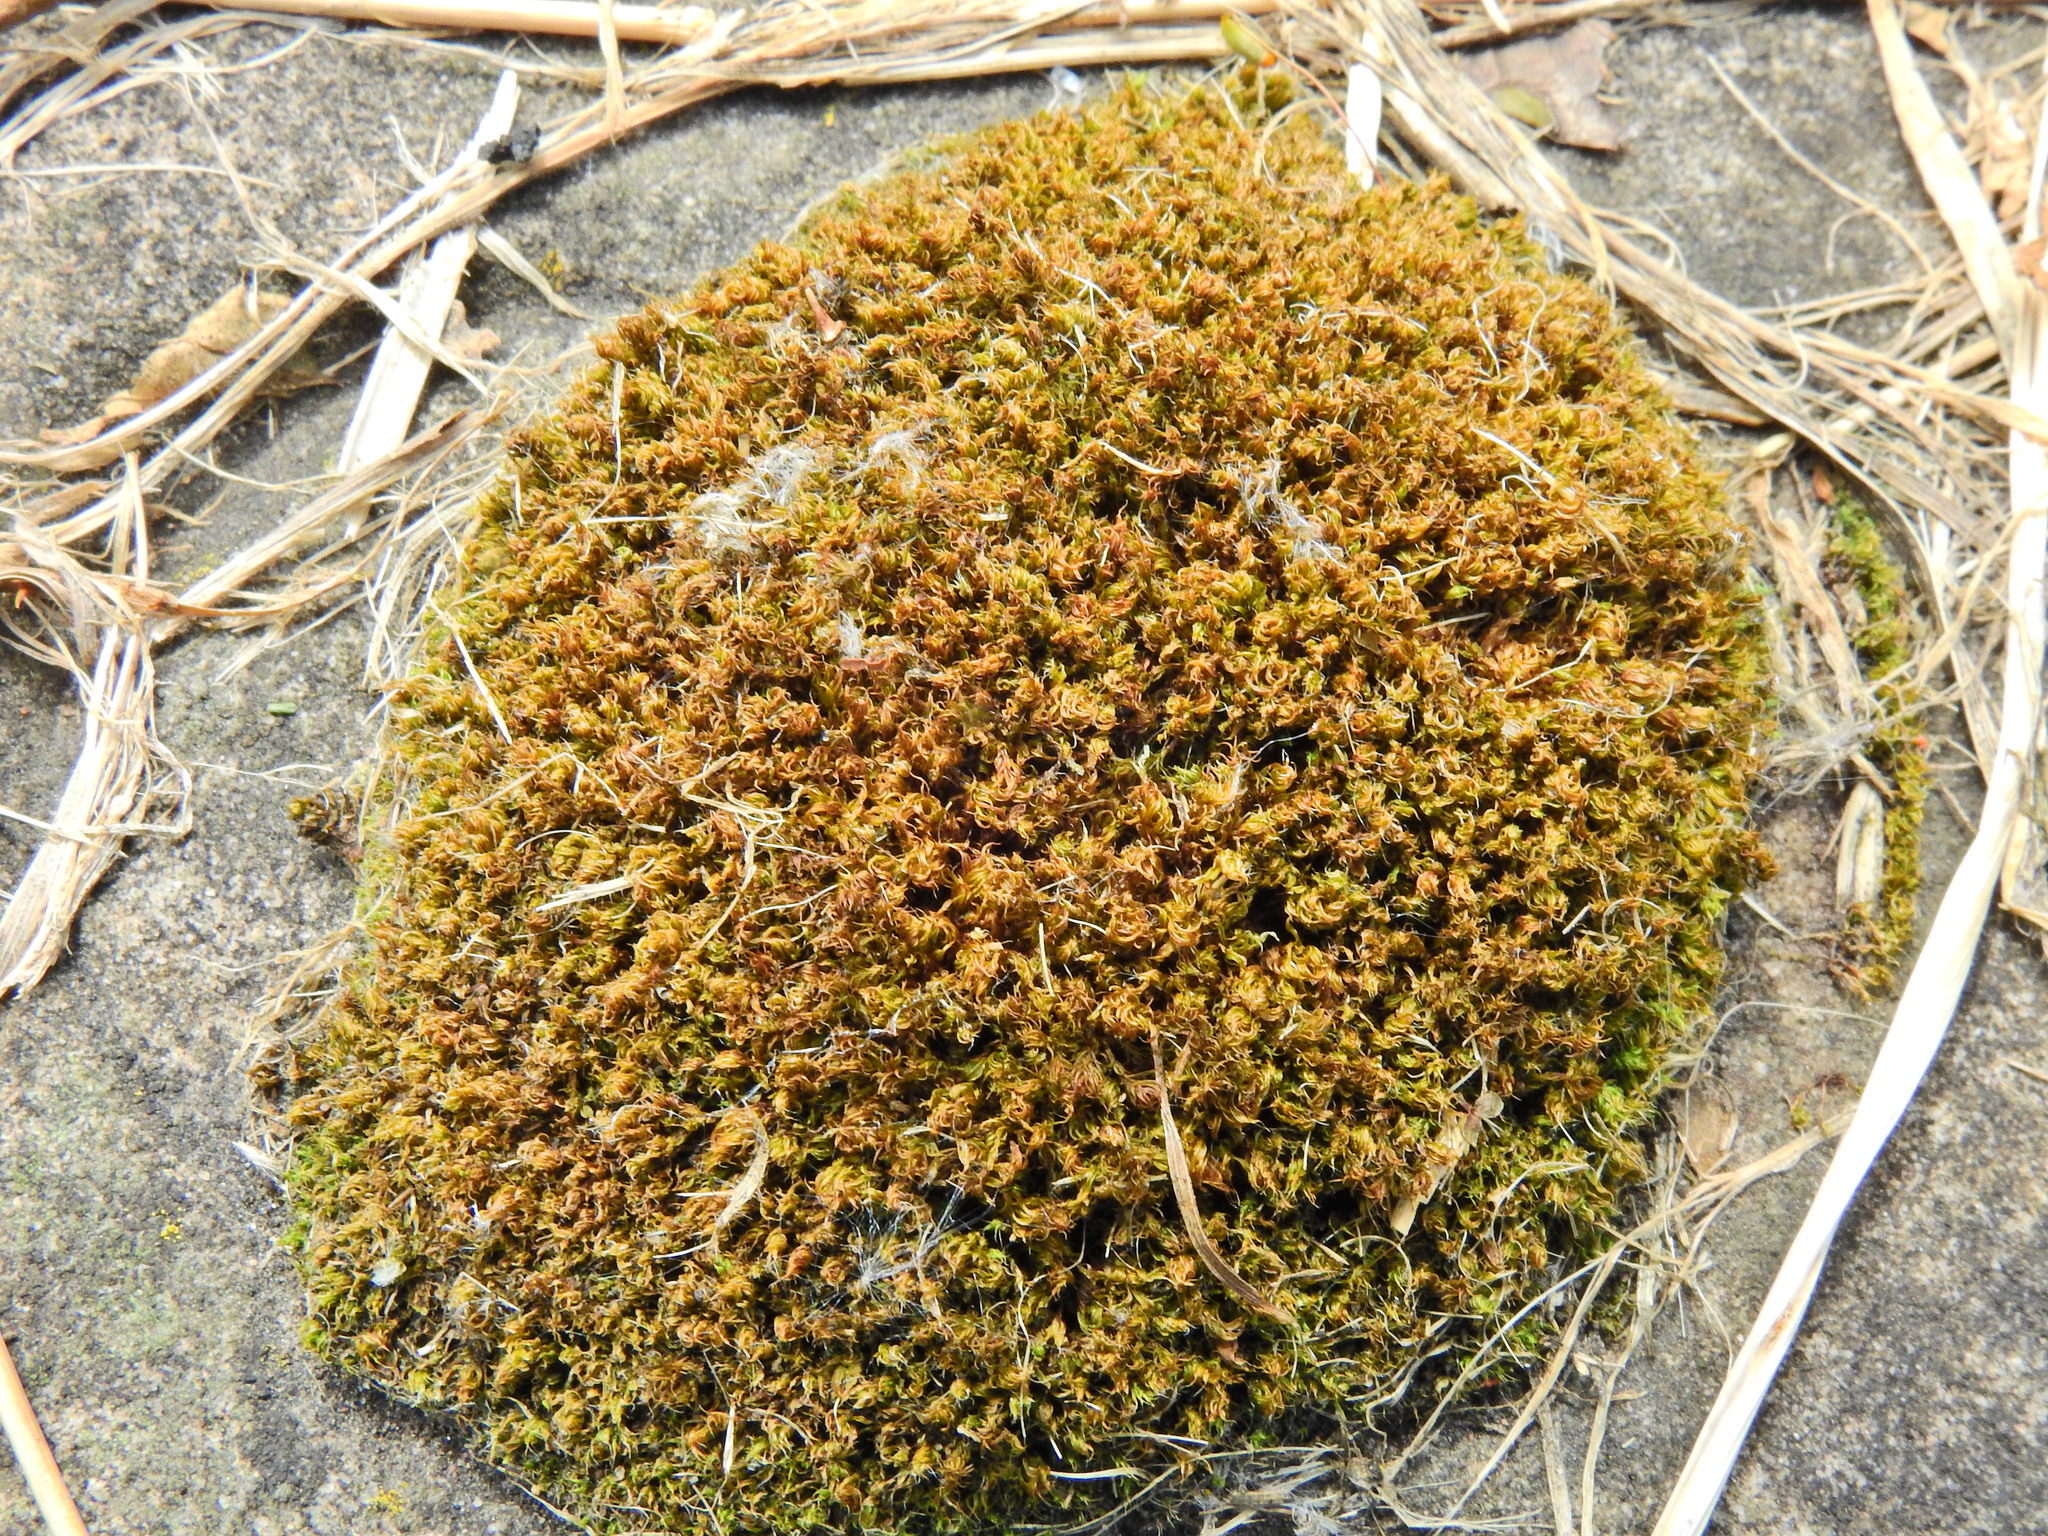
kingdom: Plantae
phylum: Bryophyta
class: Bryopsida
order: Bryales
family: Bryaceae
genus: Rosulabryum
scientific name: Rosulabryum capillare
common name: Capillary thread-moss
